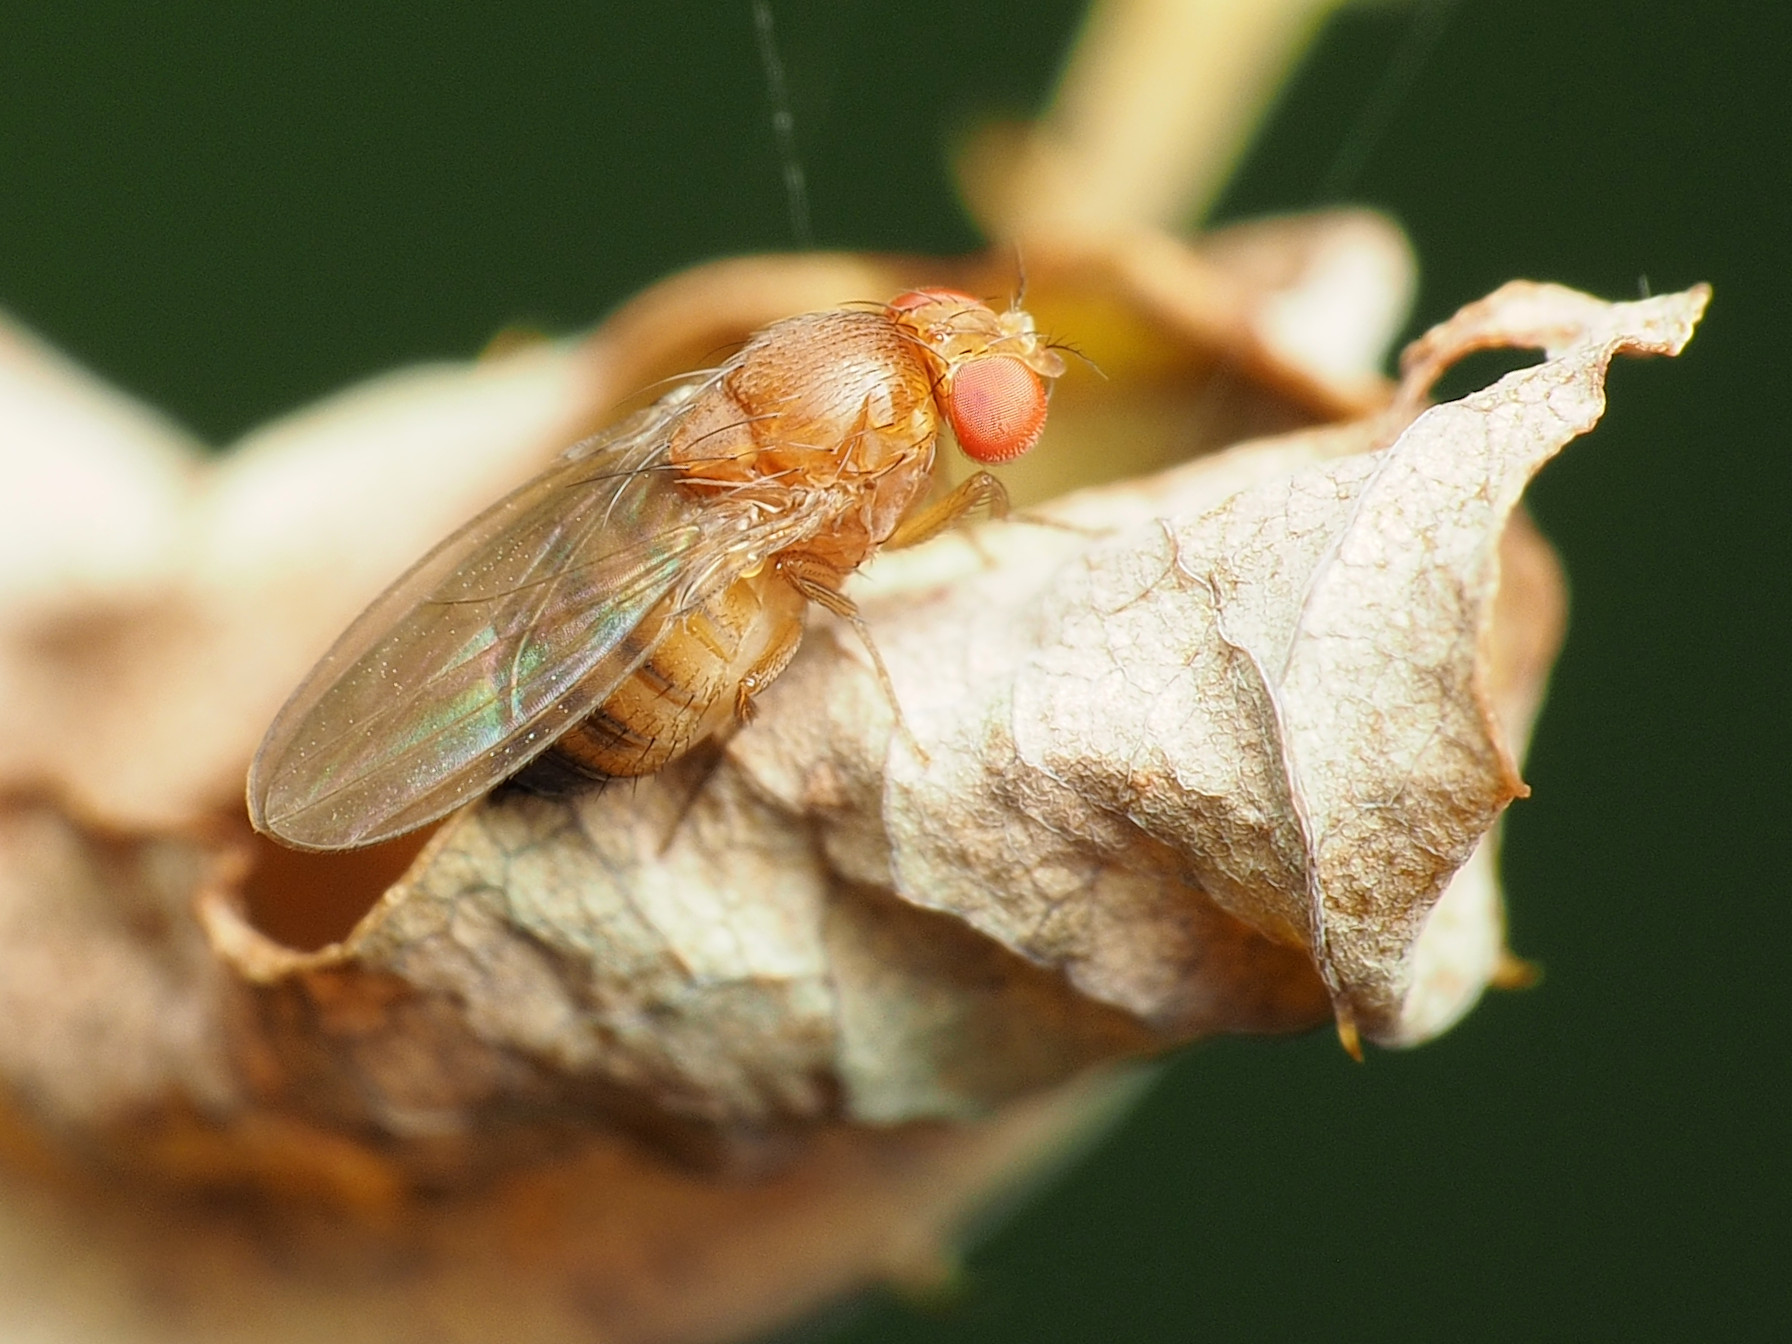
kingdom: Animalia
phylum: Arthropoda
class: Insecta
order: Diptera
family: Drosophilidae
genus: Drosophila
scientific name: Drosophila suzukii
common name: Spotted-wing drosophila
